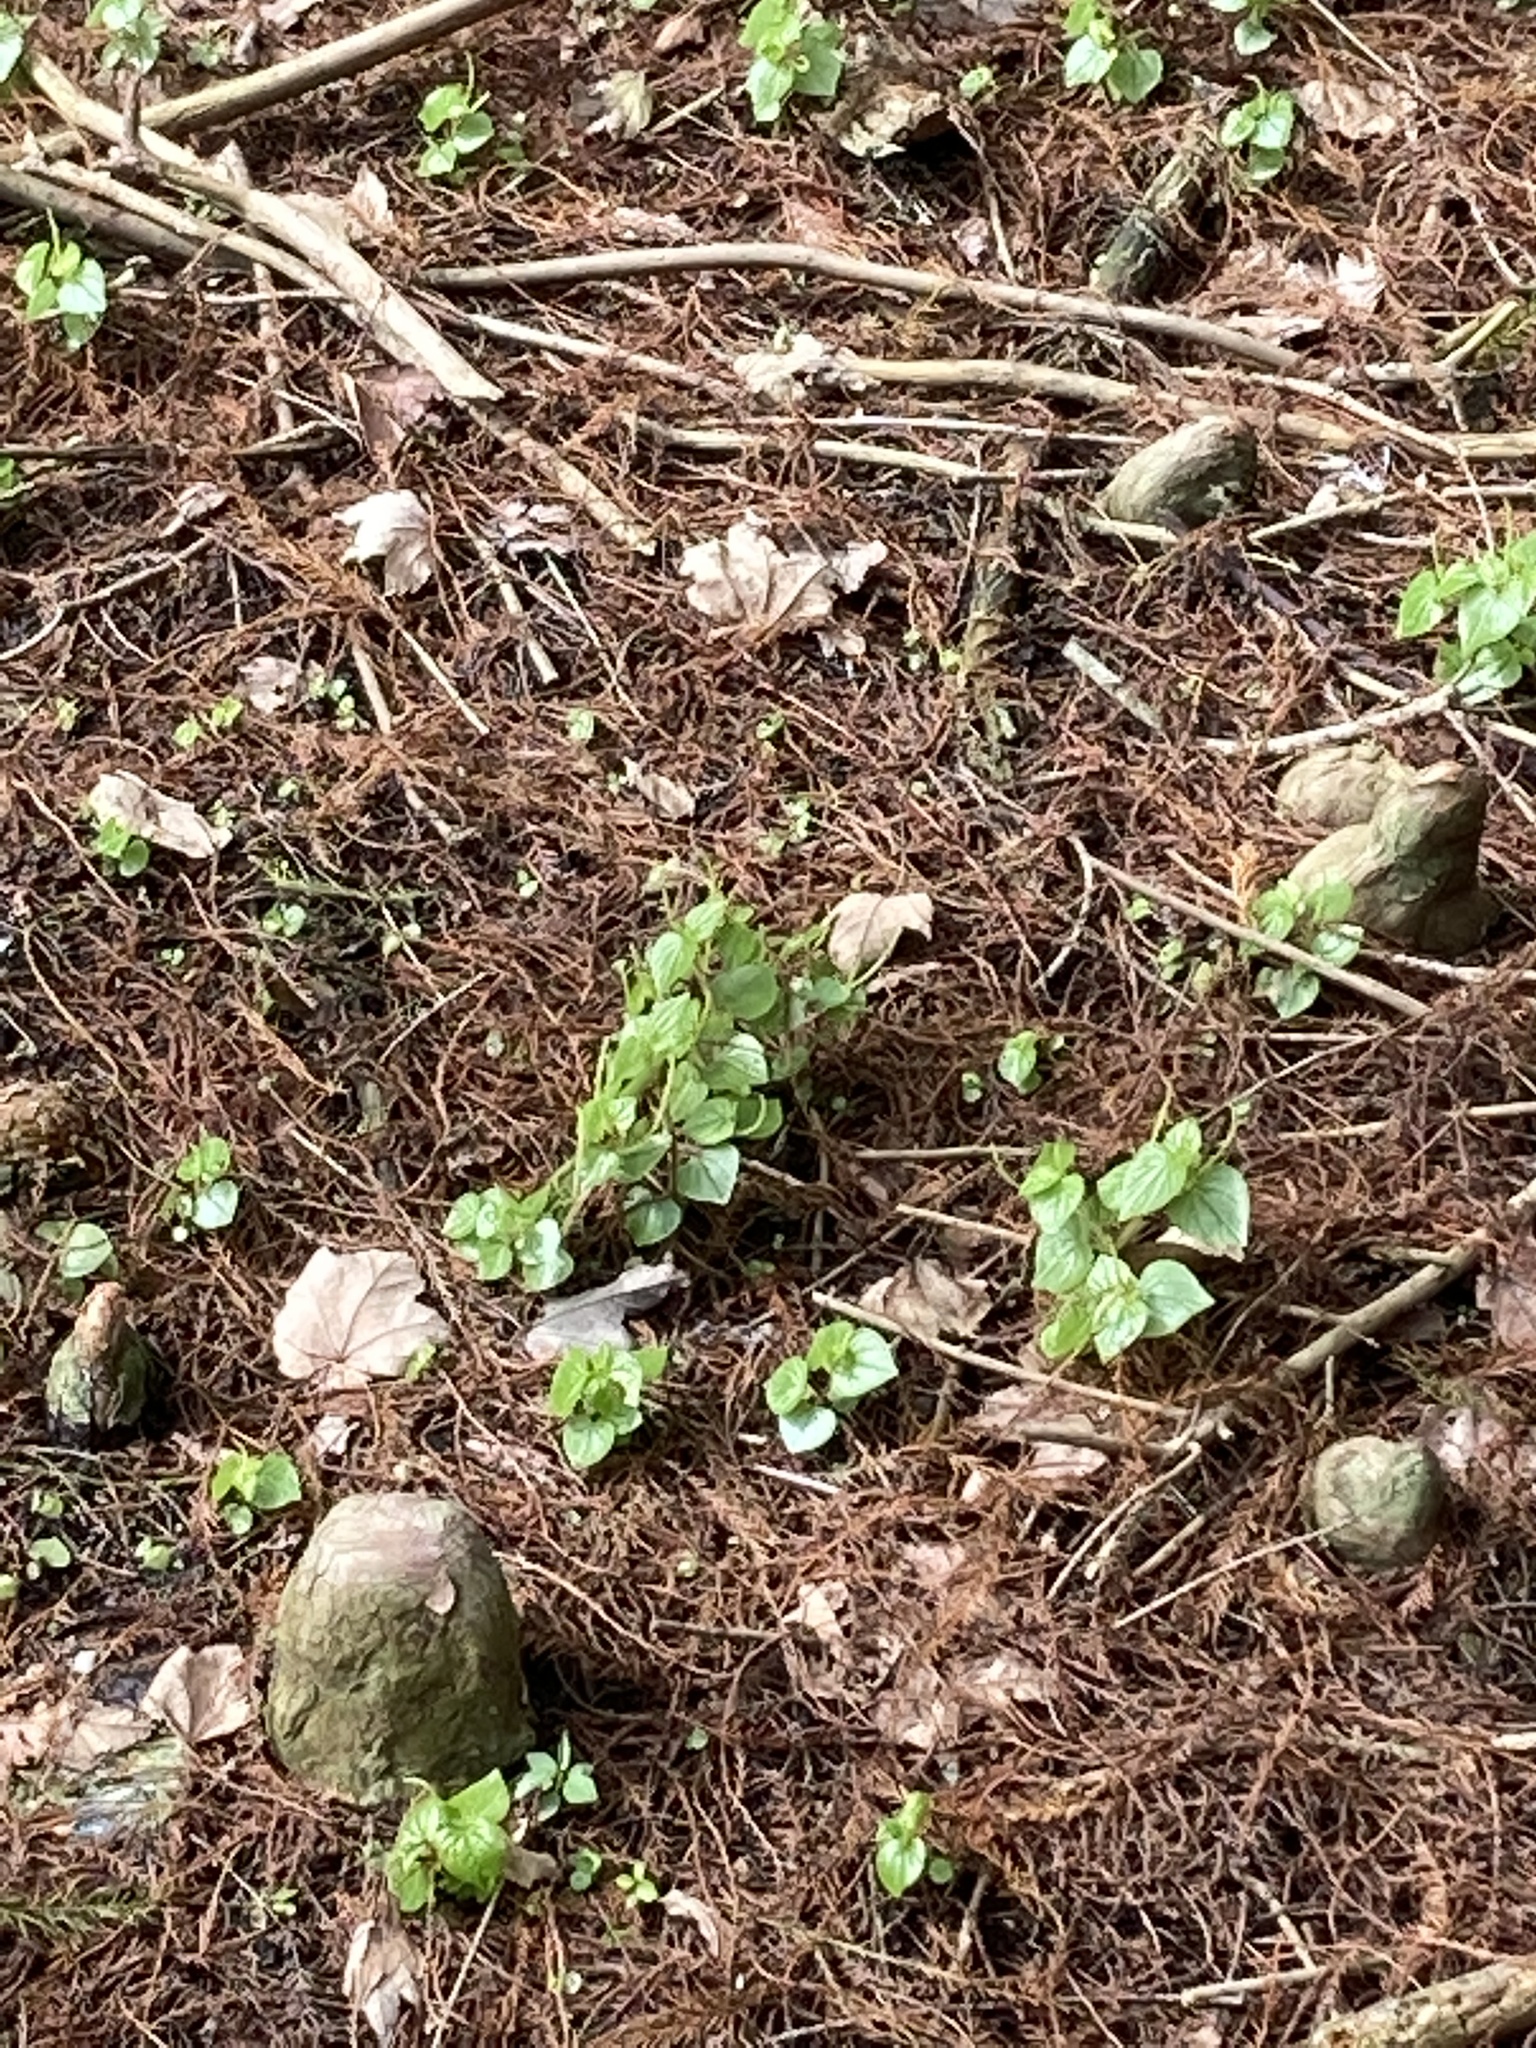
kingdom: Plantae
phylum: Tracheophyta
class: Magnoliopsida
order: Piperales
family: Piperaceae
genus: Peperomia
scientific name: Peperomia pellucida
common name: Man to man
